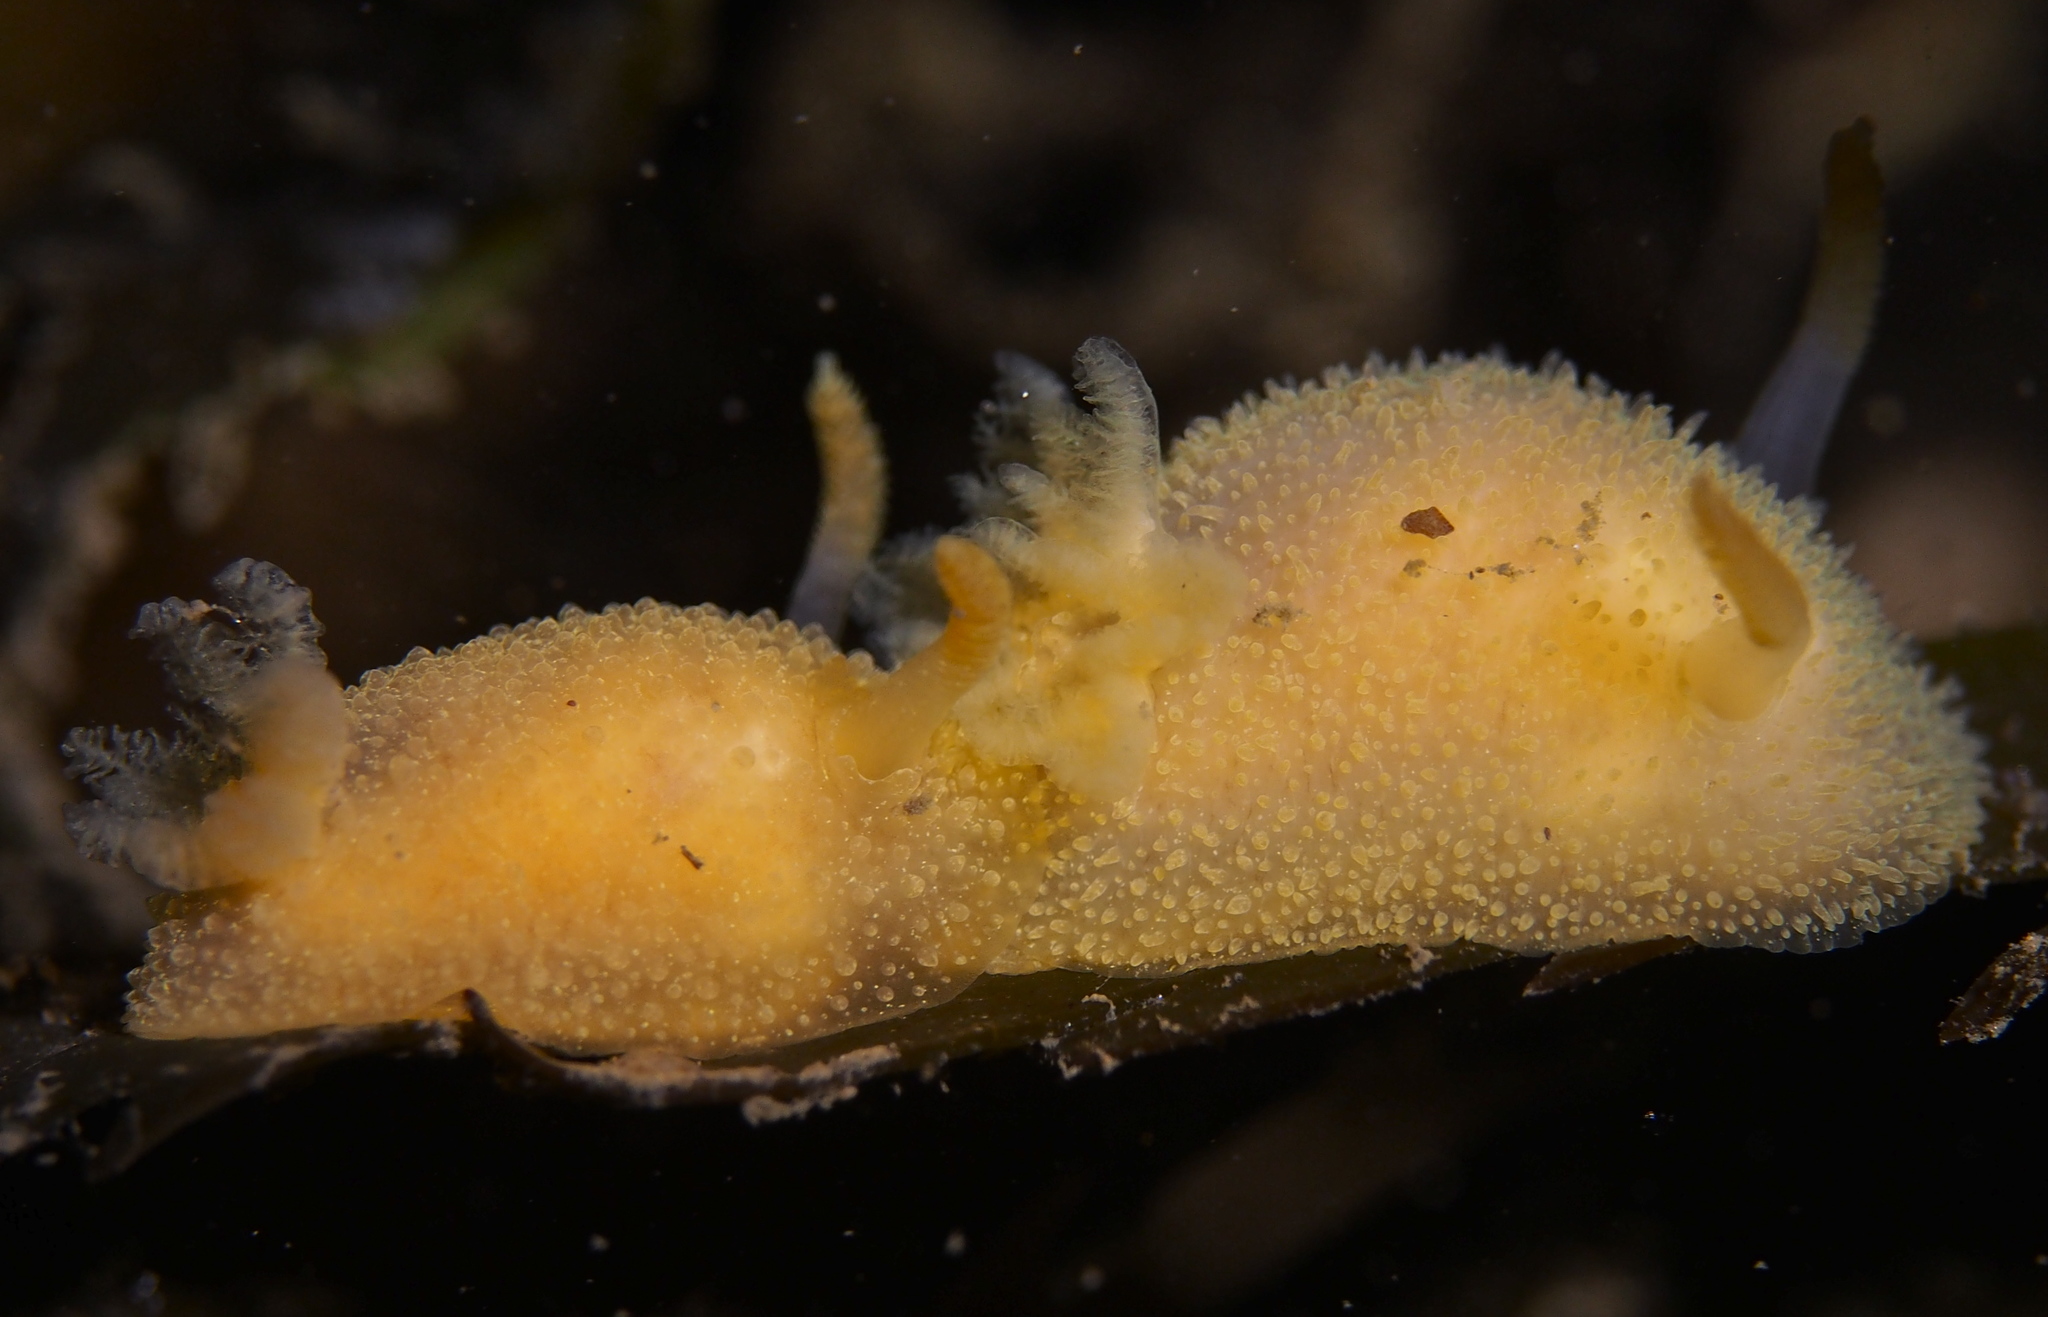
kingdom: Animalia
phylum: Mollusca
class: Gastropoda
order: Nudibranchia
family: Onchidorididae
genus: Acanthodoris
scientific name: Acanthodoris pilosa
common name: Hairy spiny doris
